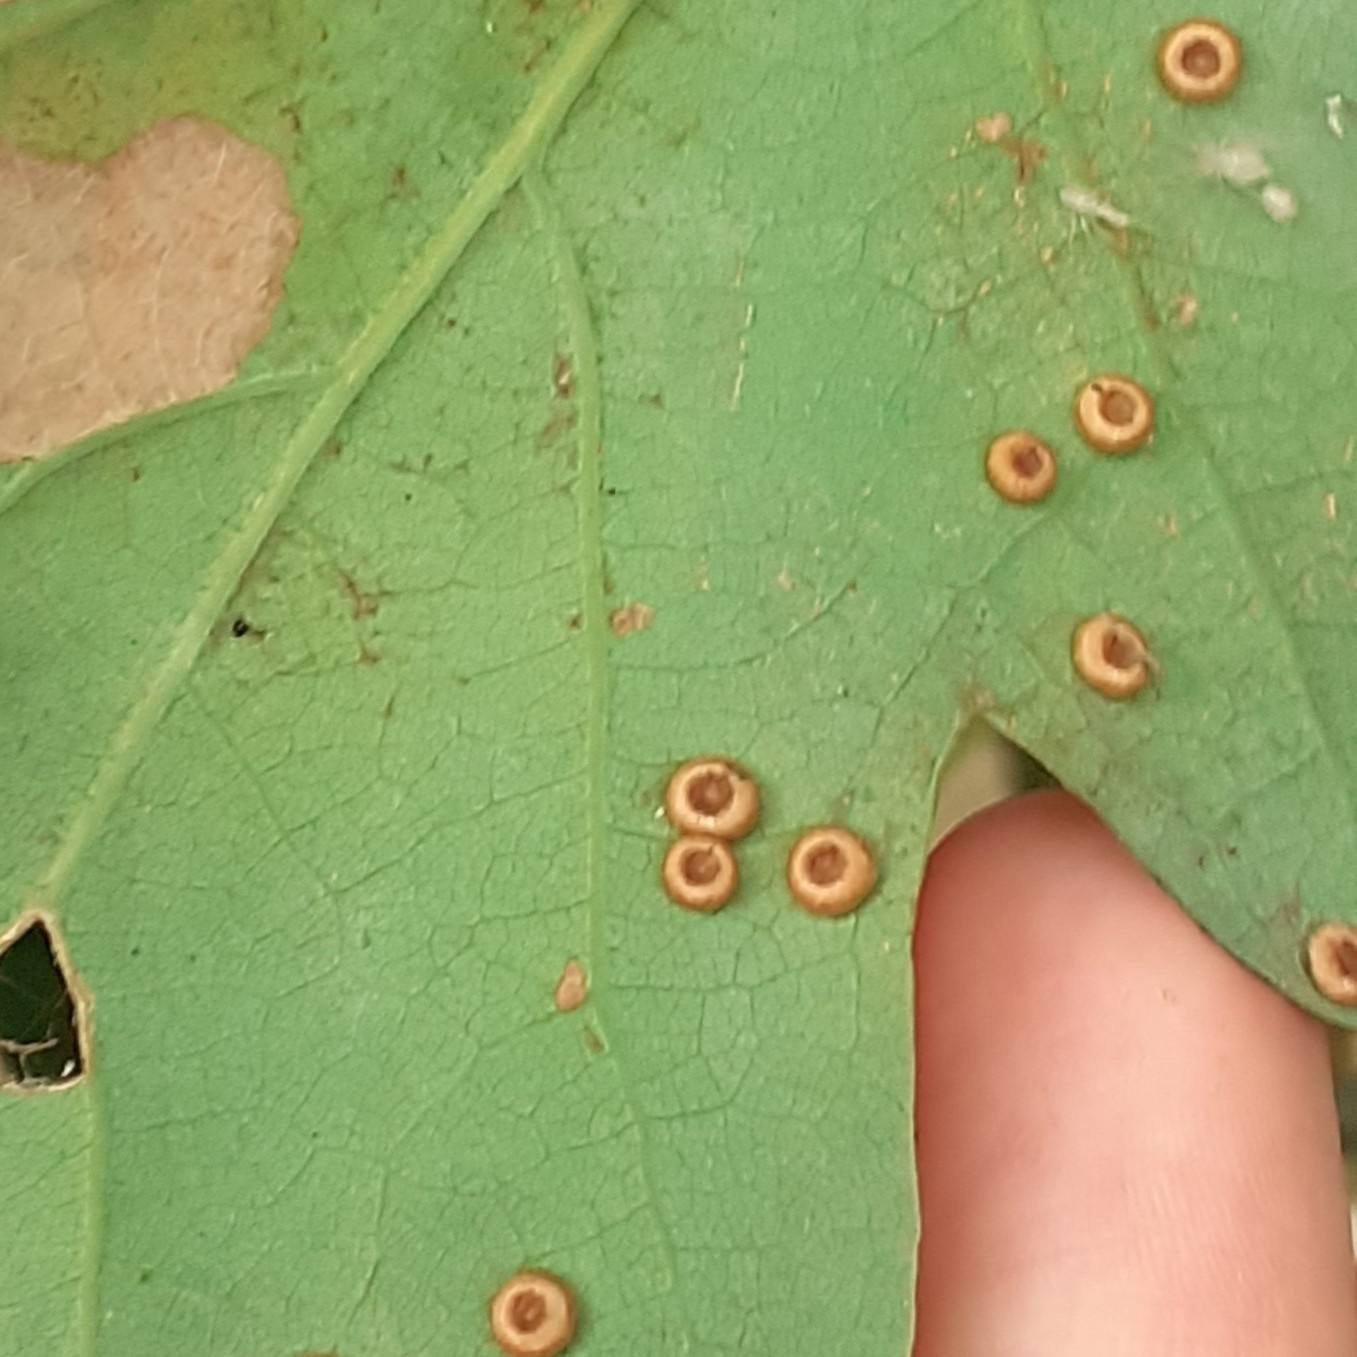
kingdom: Animalia
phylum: Arthropoda
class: Insecta
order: Hymenoptera
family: Cynipidae
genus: Neuroterus
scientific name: Neuroterus numismalis
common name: Silk-button spangle gall
